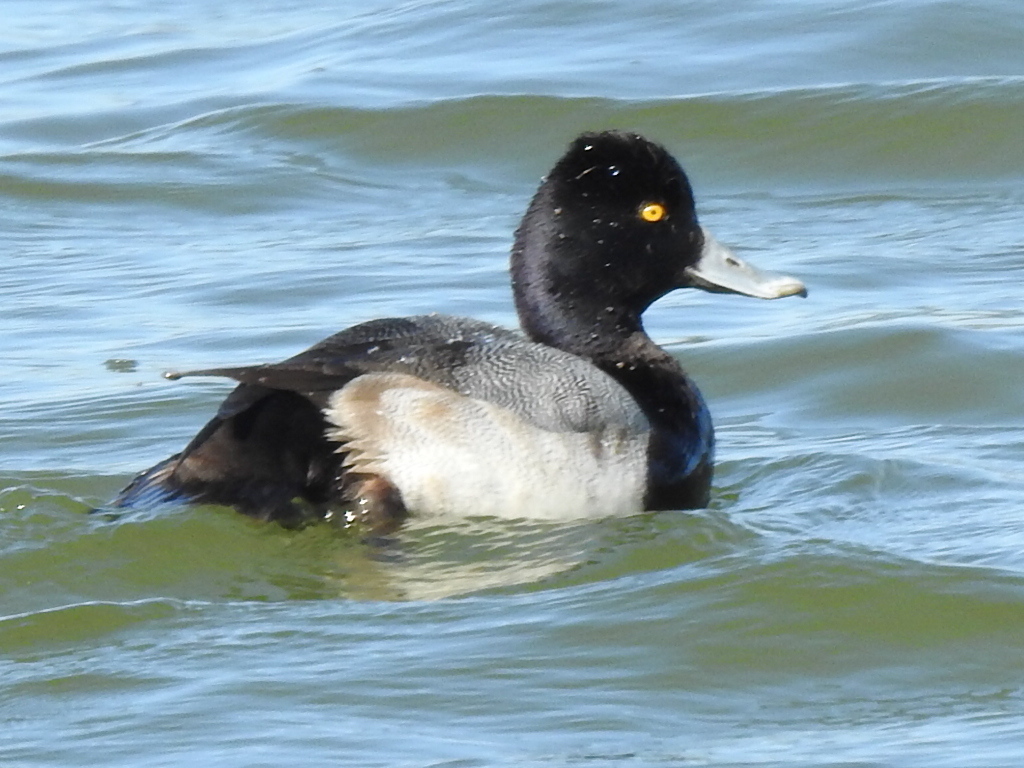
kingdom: Animalia
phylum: Chordata
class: Aves
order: Anseriformes
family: Anatidae
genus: Aythya
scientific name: Aythya affinis
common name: Lesser scaup
